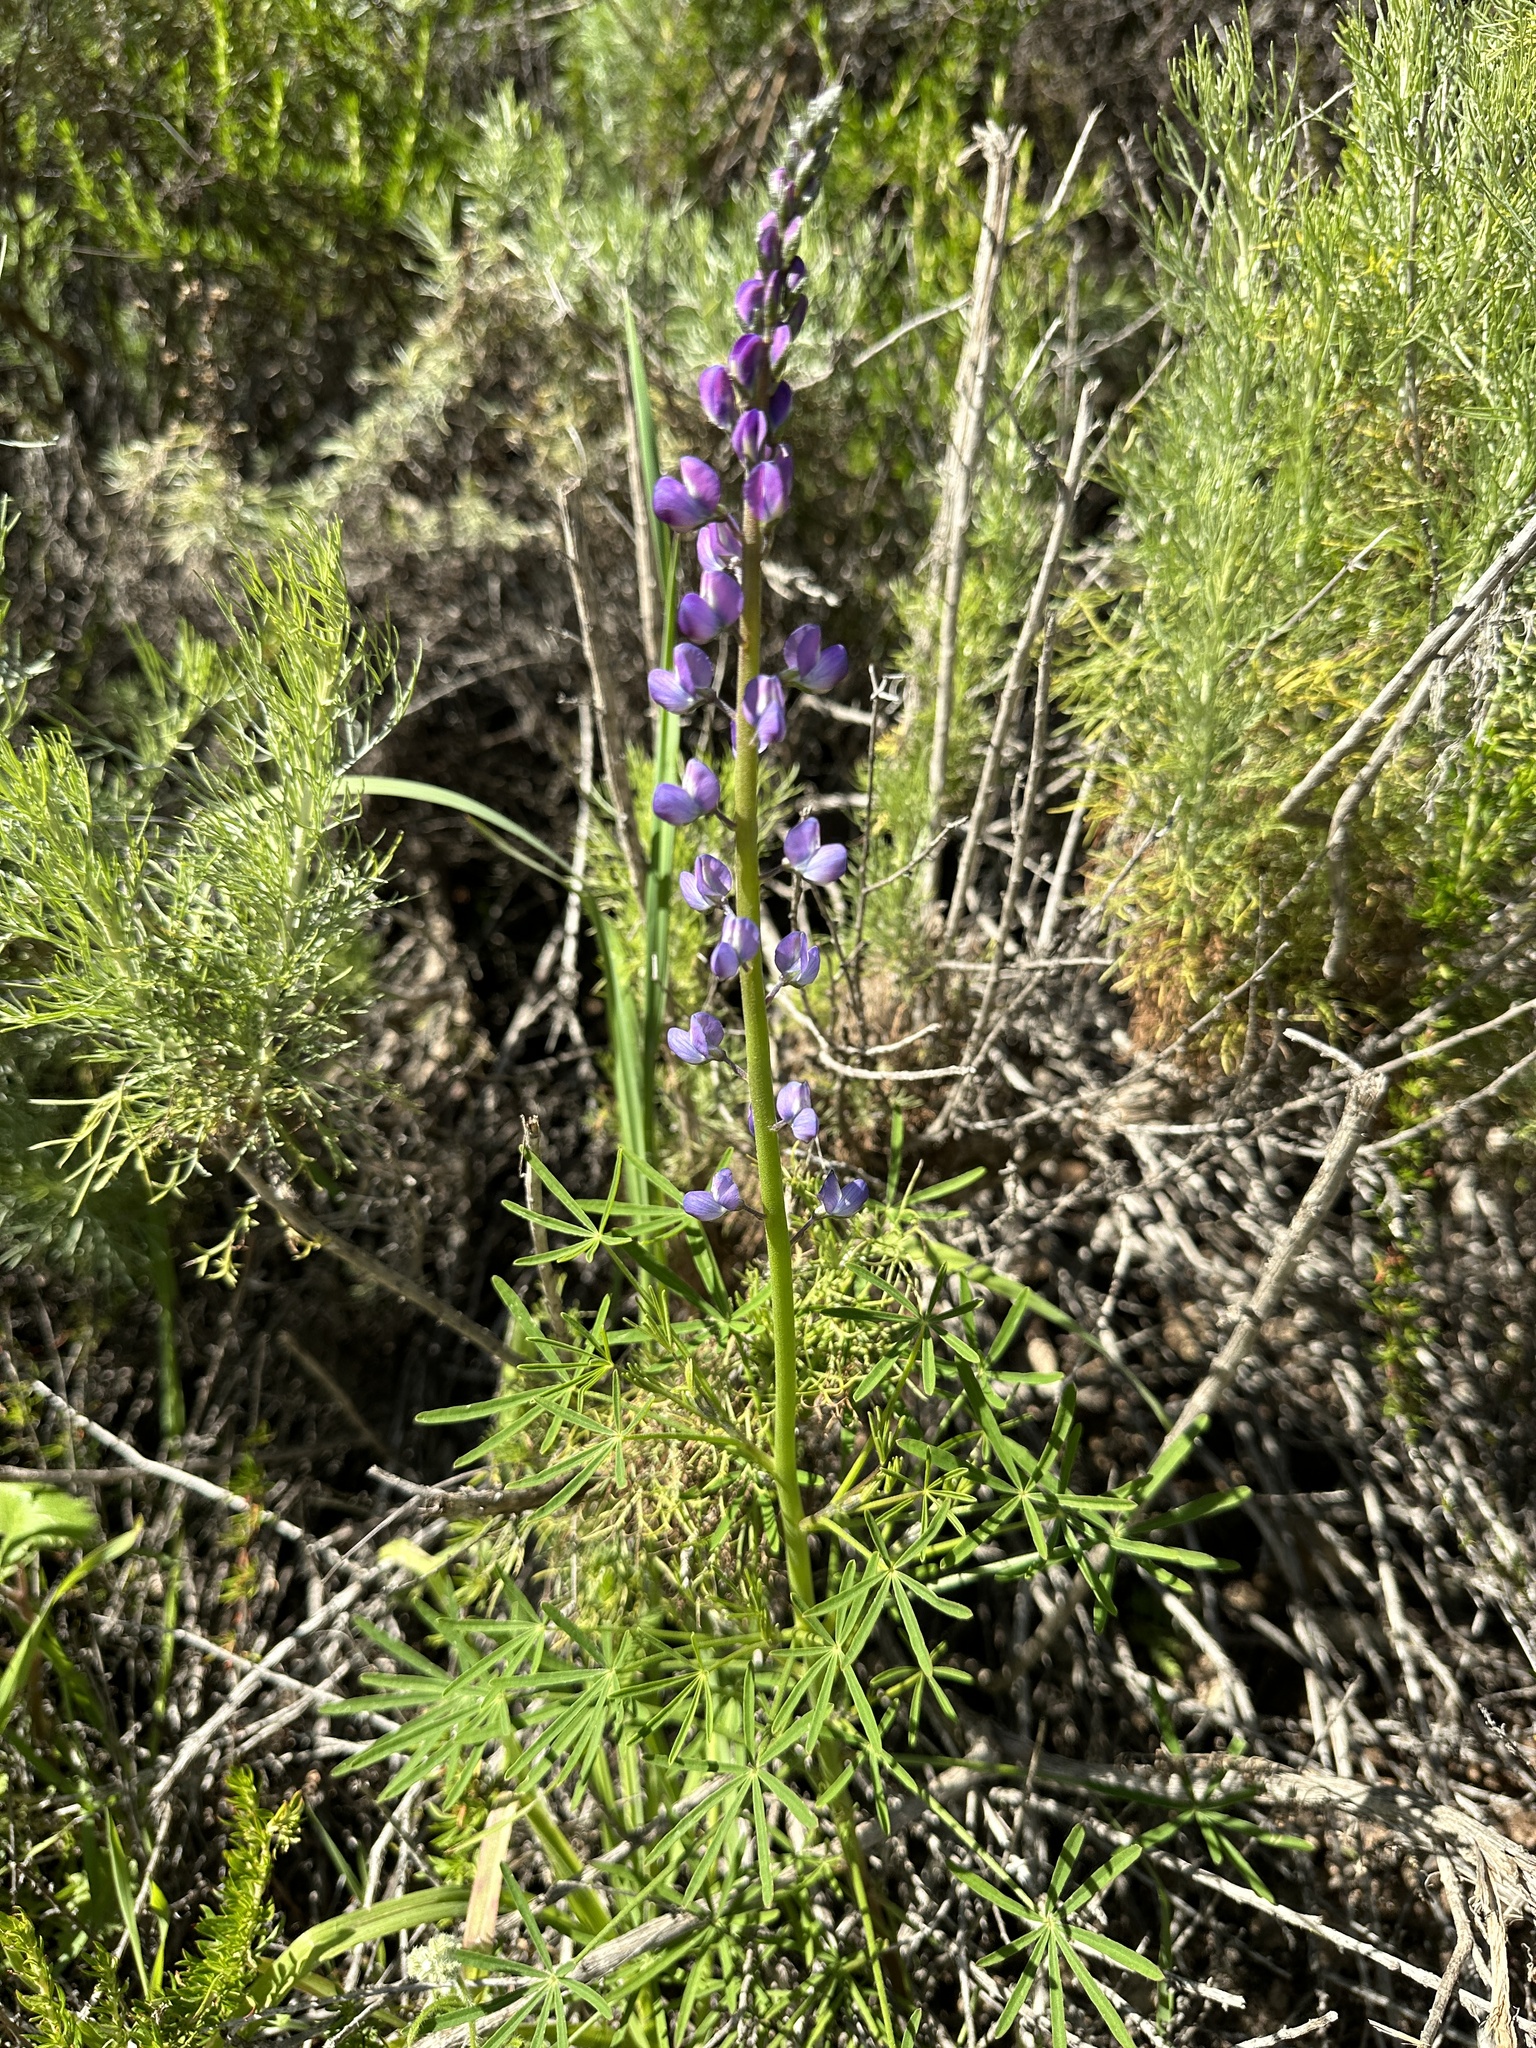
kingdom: Plantae
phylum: Tracheophyta
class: Magnoliopsida
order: Fabales
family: Fabaceae
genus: Lupinus
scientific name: Lupinus truncatus
